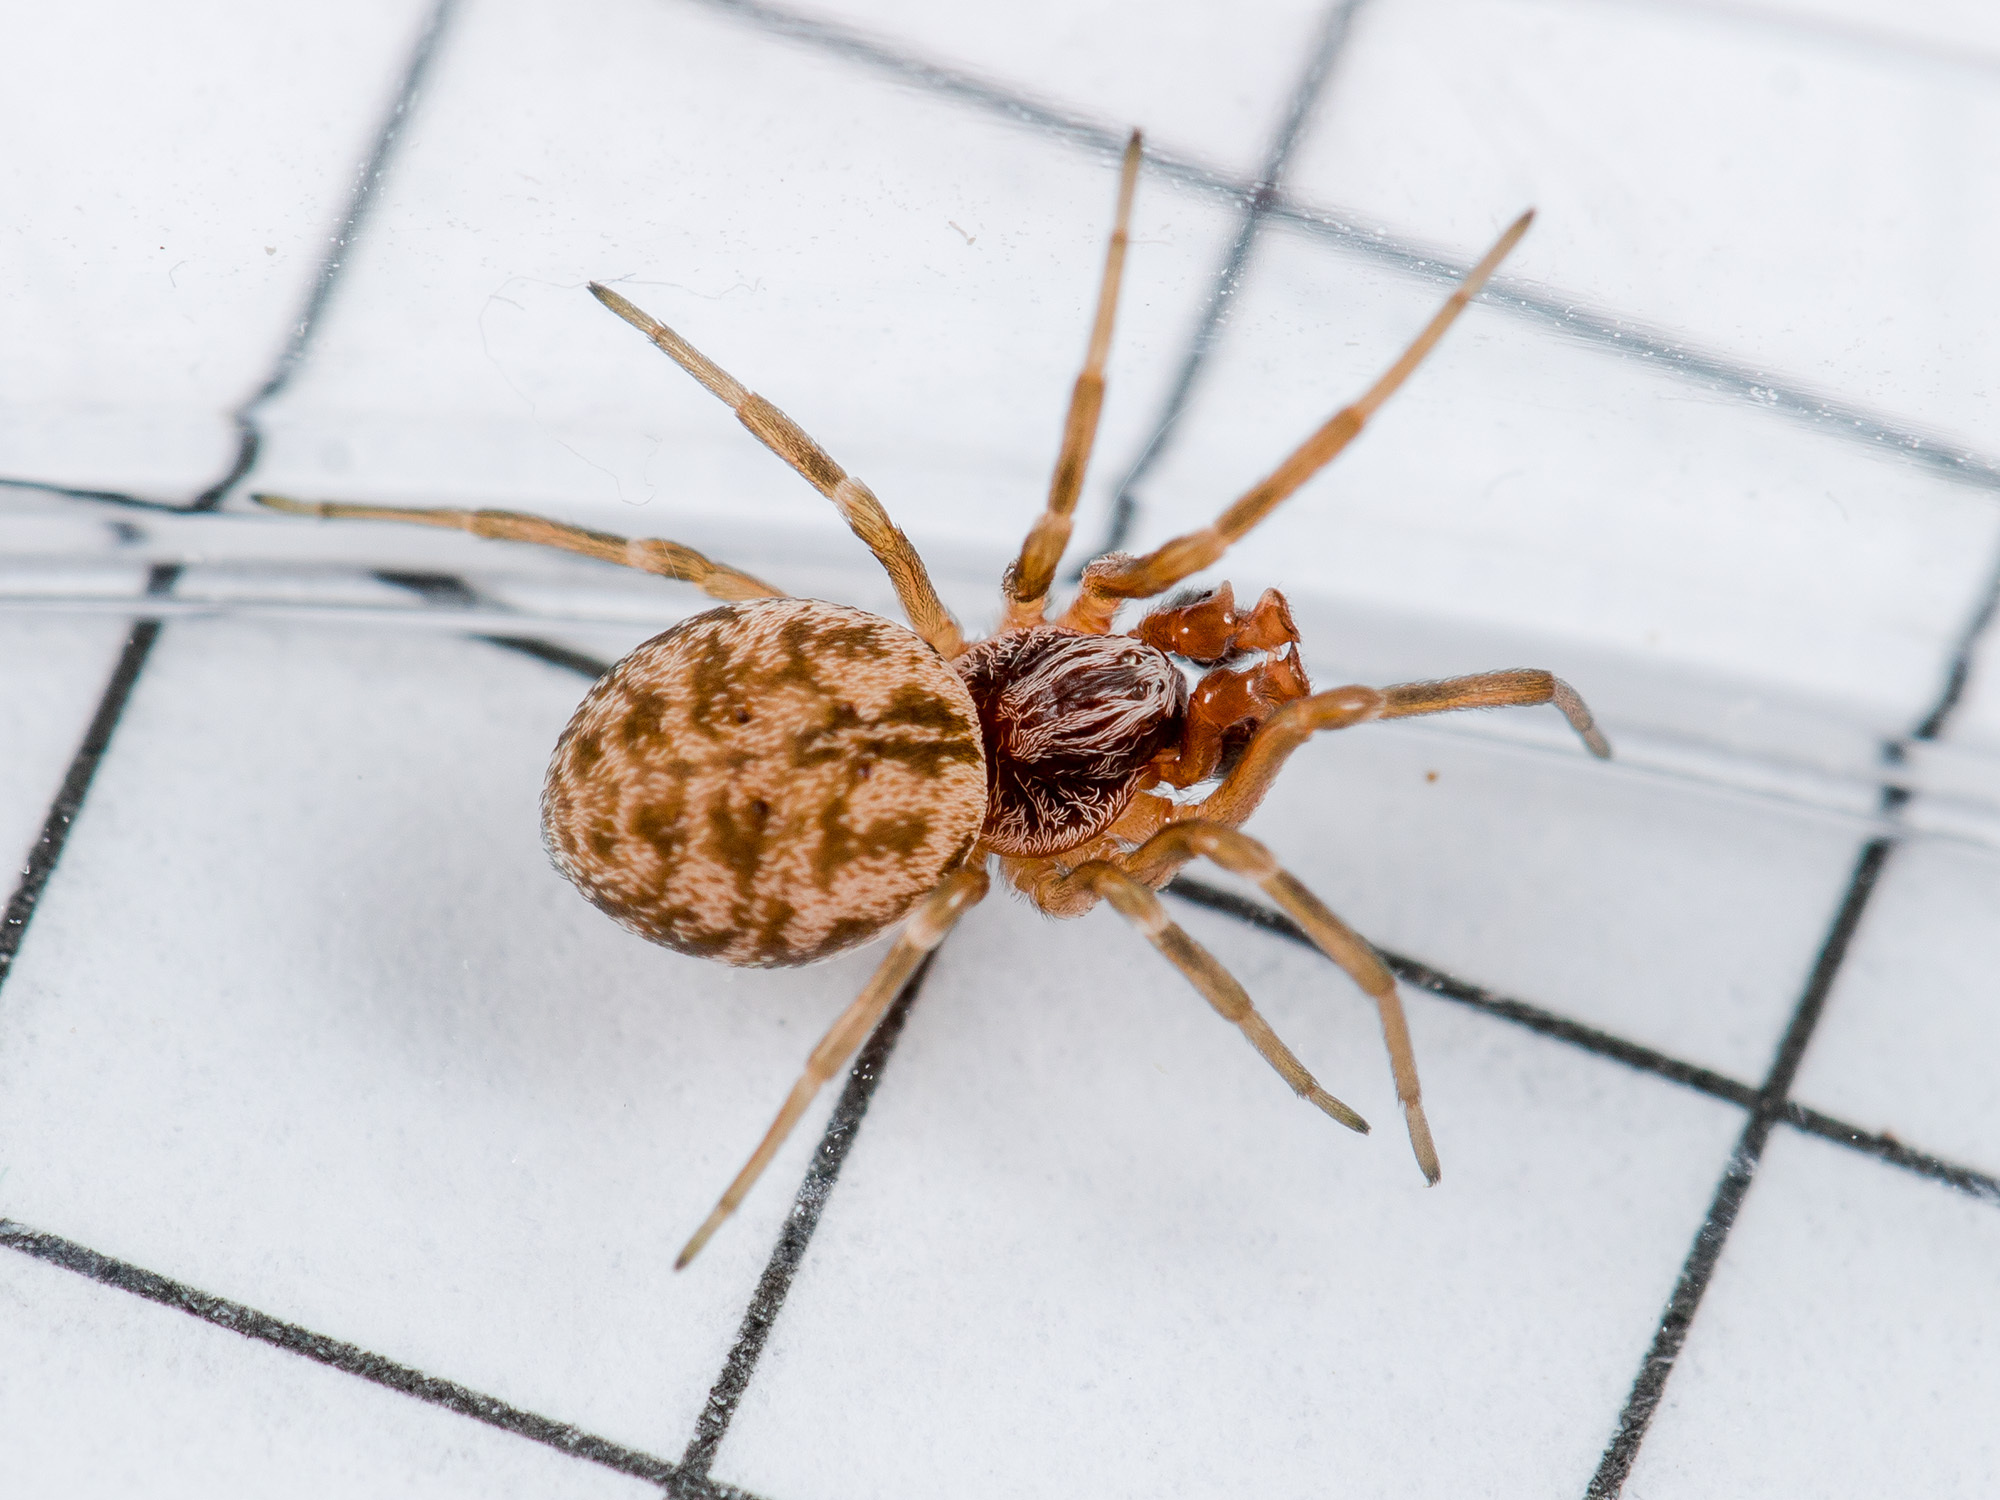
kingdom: Animalia
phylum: Arthropoda
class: Arachnida
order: Araneae
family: Dictynidae
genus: Dictynomorpha
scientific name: Dictynomorpha strandi
